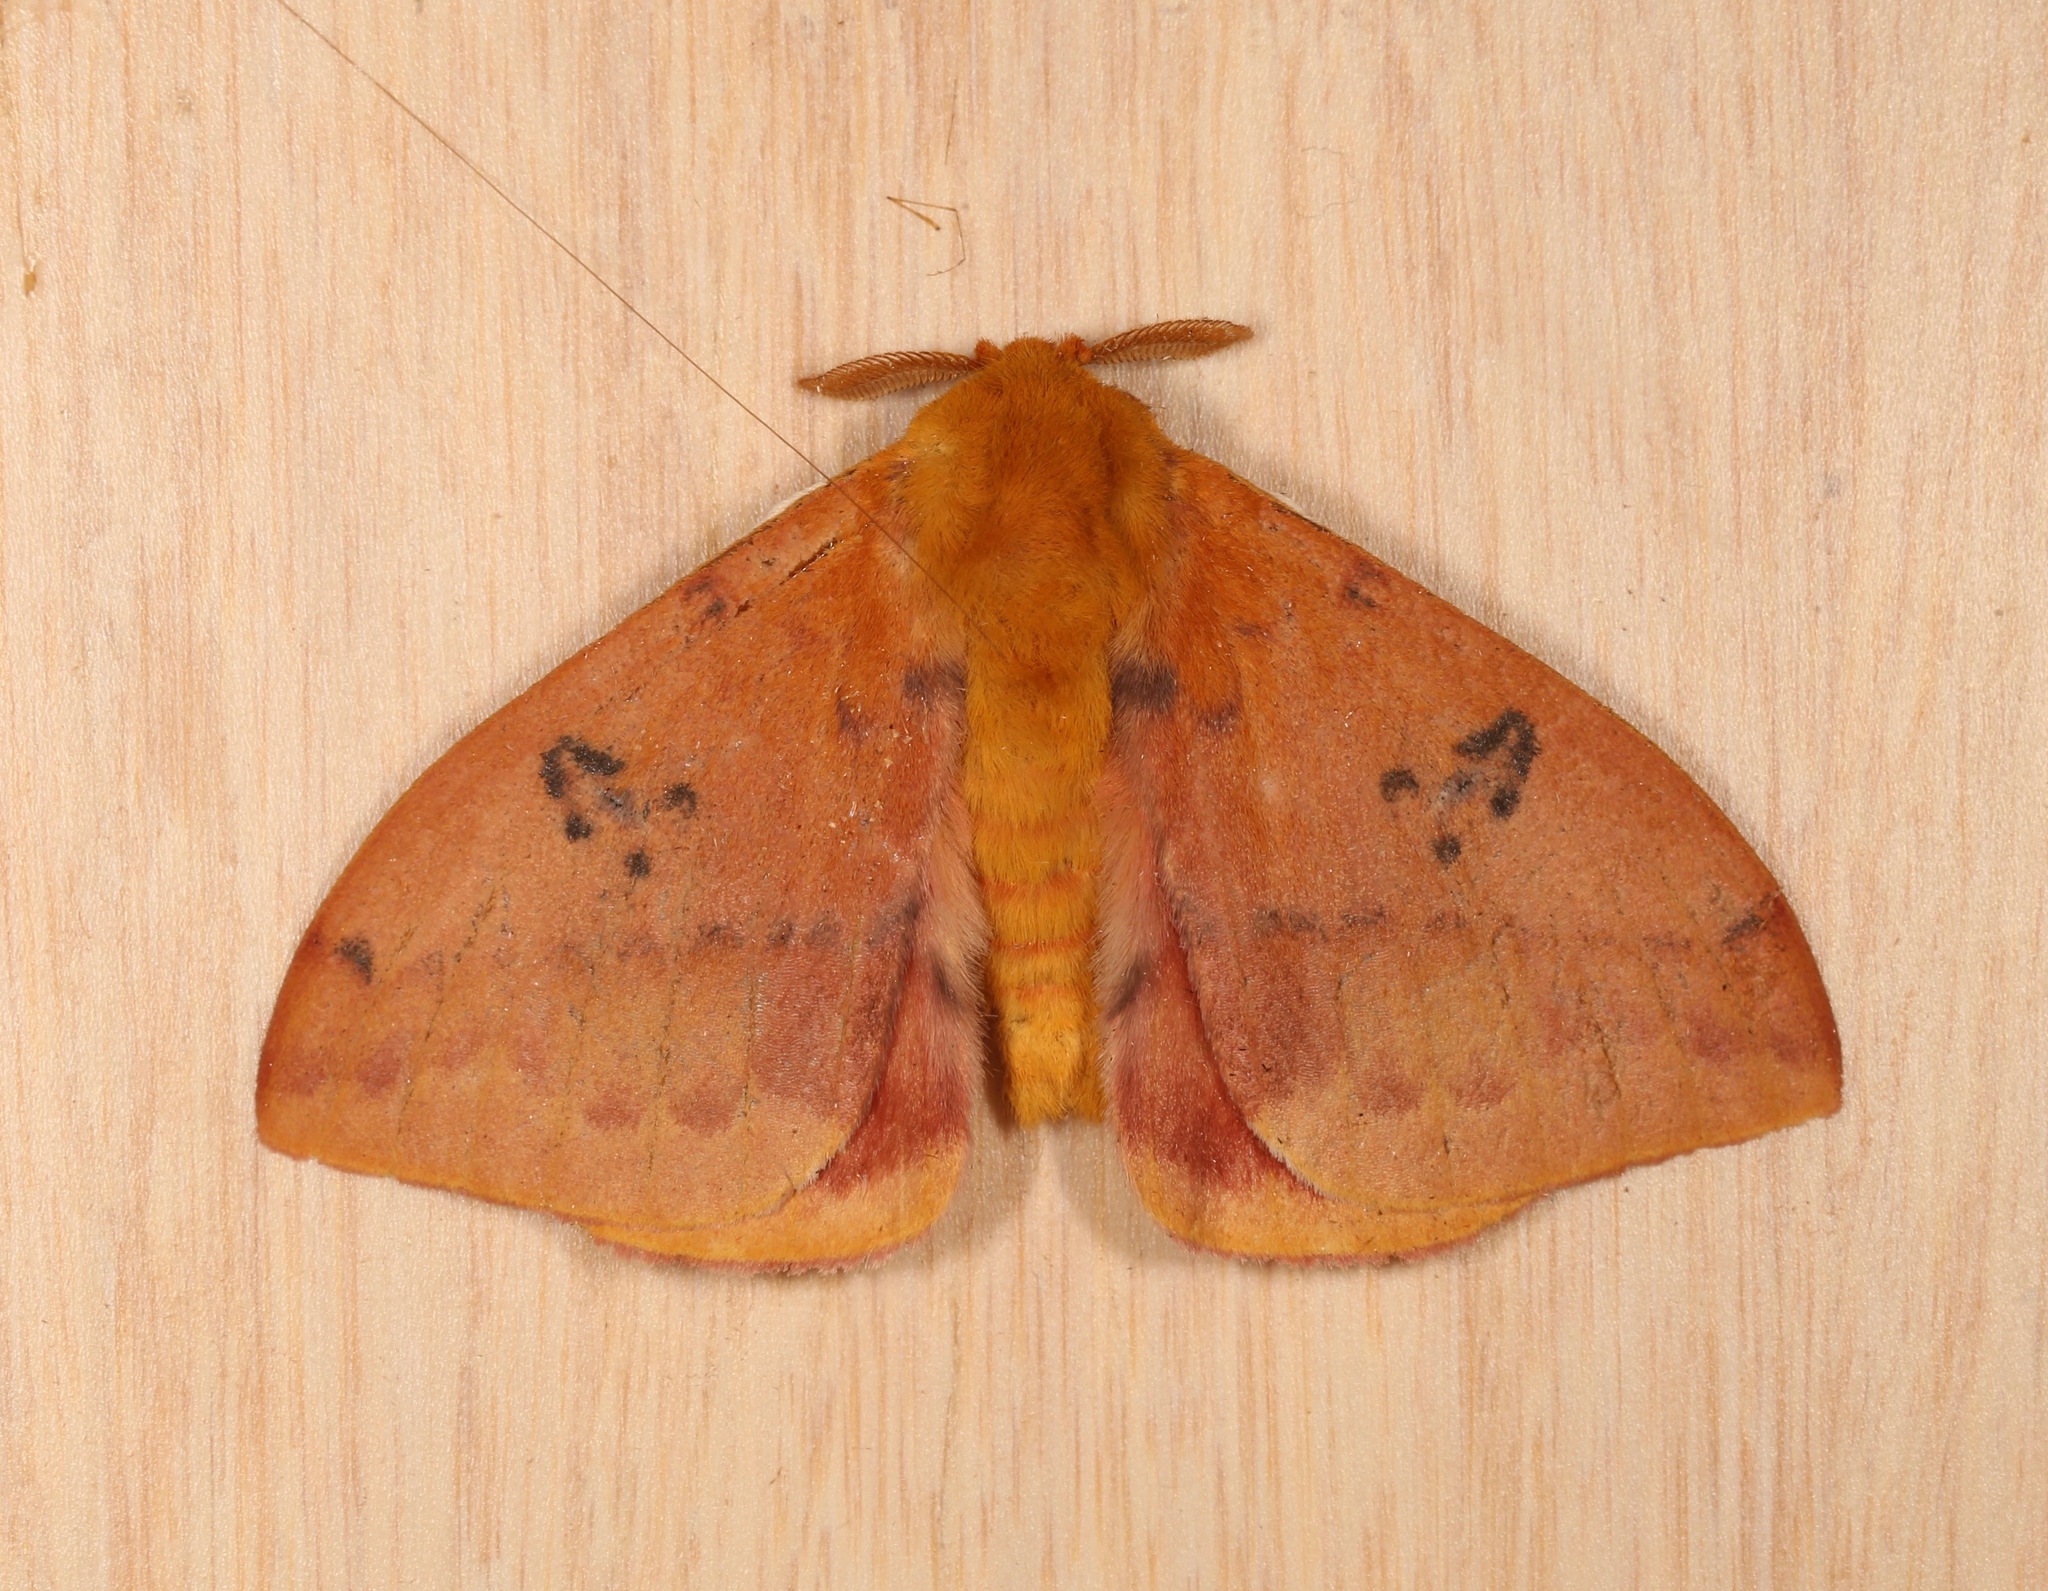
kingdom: Animalia
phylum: Arthropoda
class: Insecta
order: Lepidoptera
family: Saturniidae
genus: Automeris
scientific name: Automeris io
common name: Io moth
